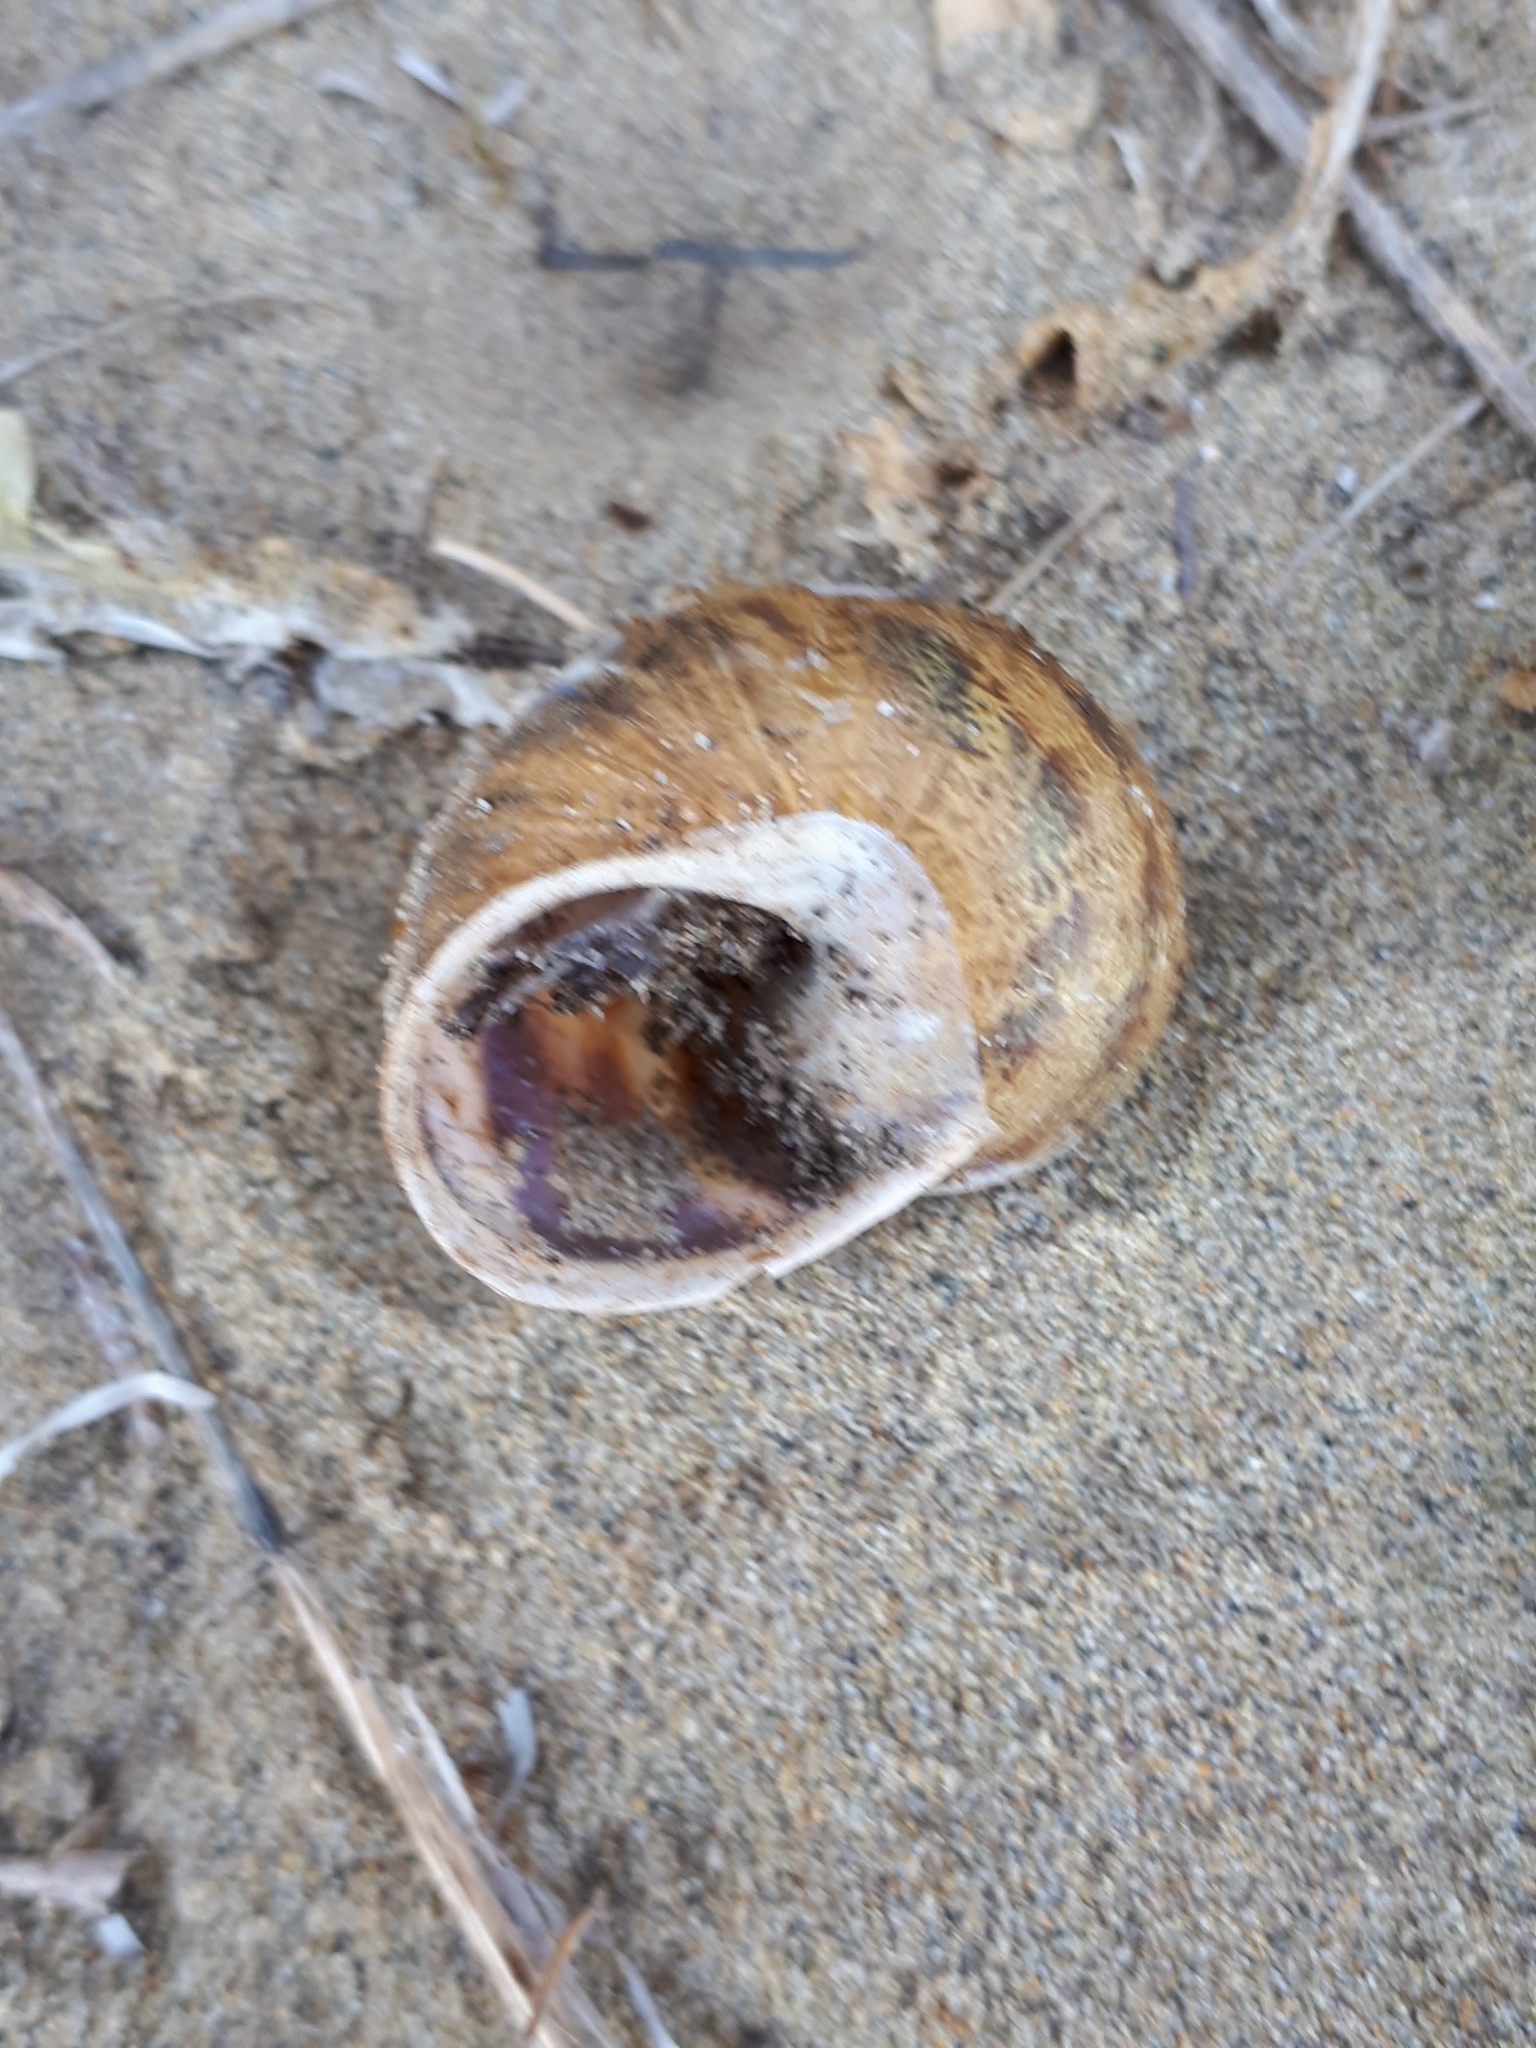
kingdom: Animalia
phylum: Mollusca
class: Gastropoda
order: Stylommatophora
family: Helicidae
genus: Cornu
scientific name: Cornu aspersum
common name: Brown garden snail
